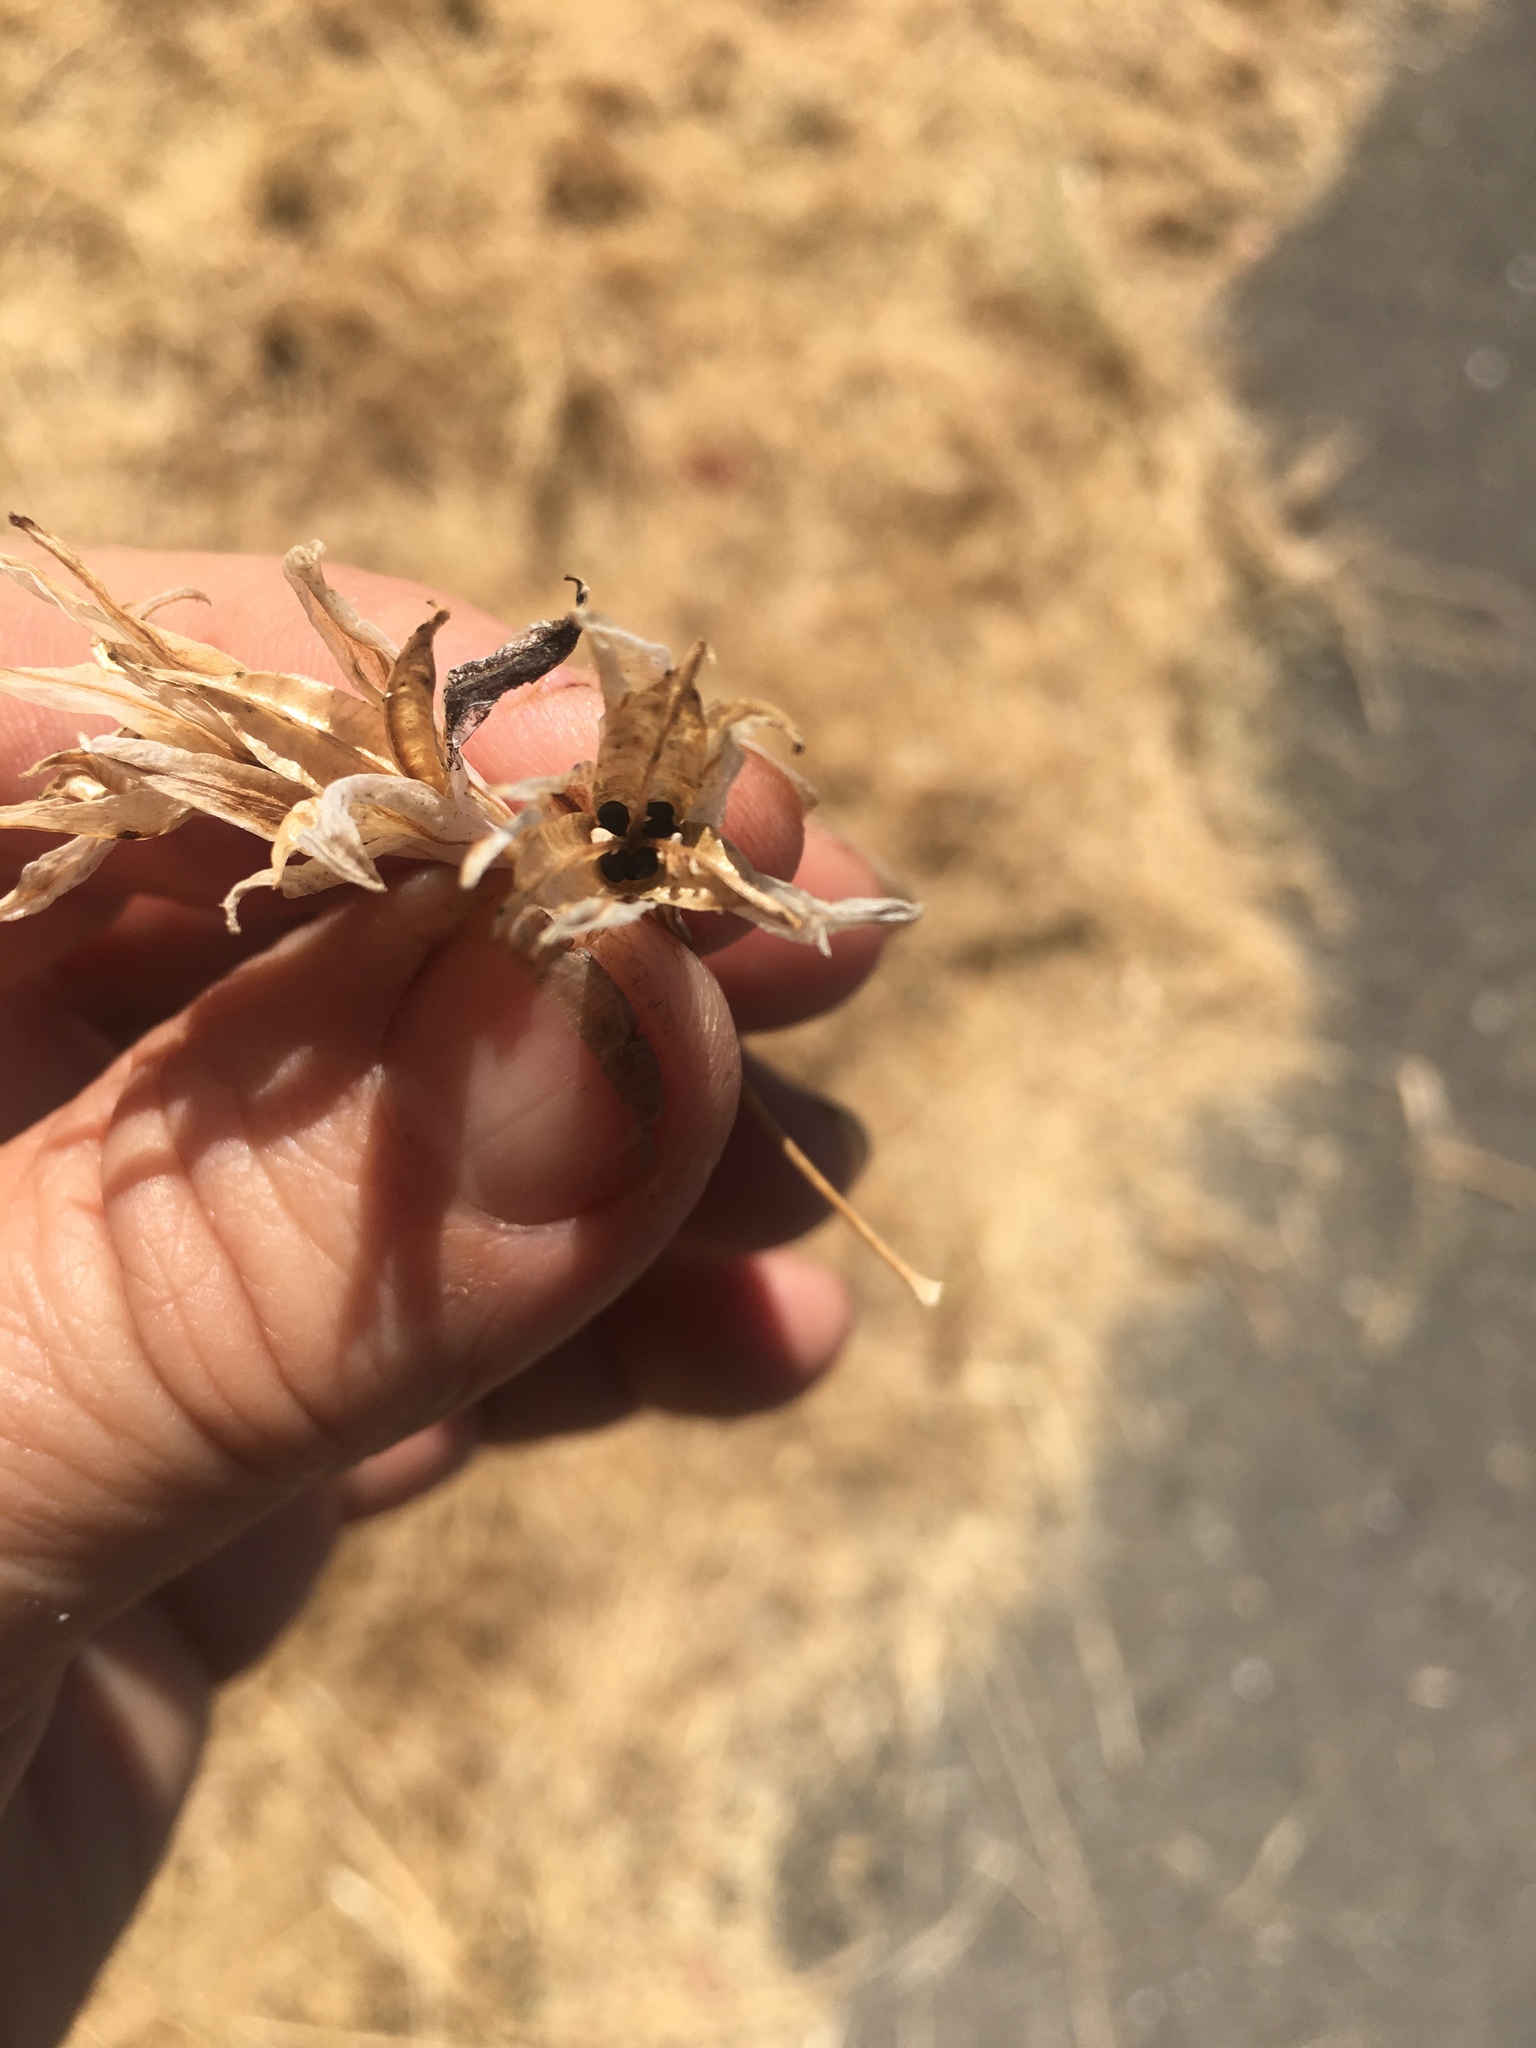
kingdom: Plantae
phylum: Tracheophyta
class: Liliopsida
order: Asparagales
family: Asparagaceae
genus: Triteleia
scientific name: Triteleia laxa
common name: Triplet-lily
